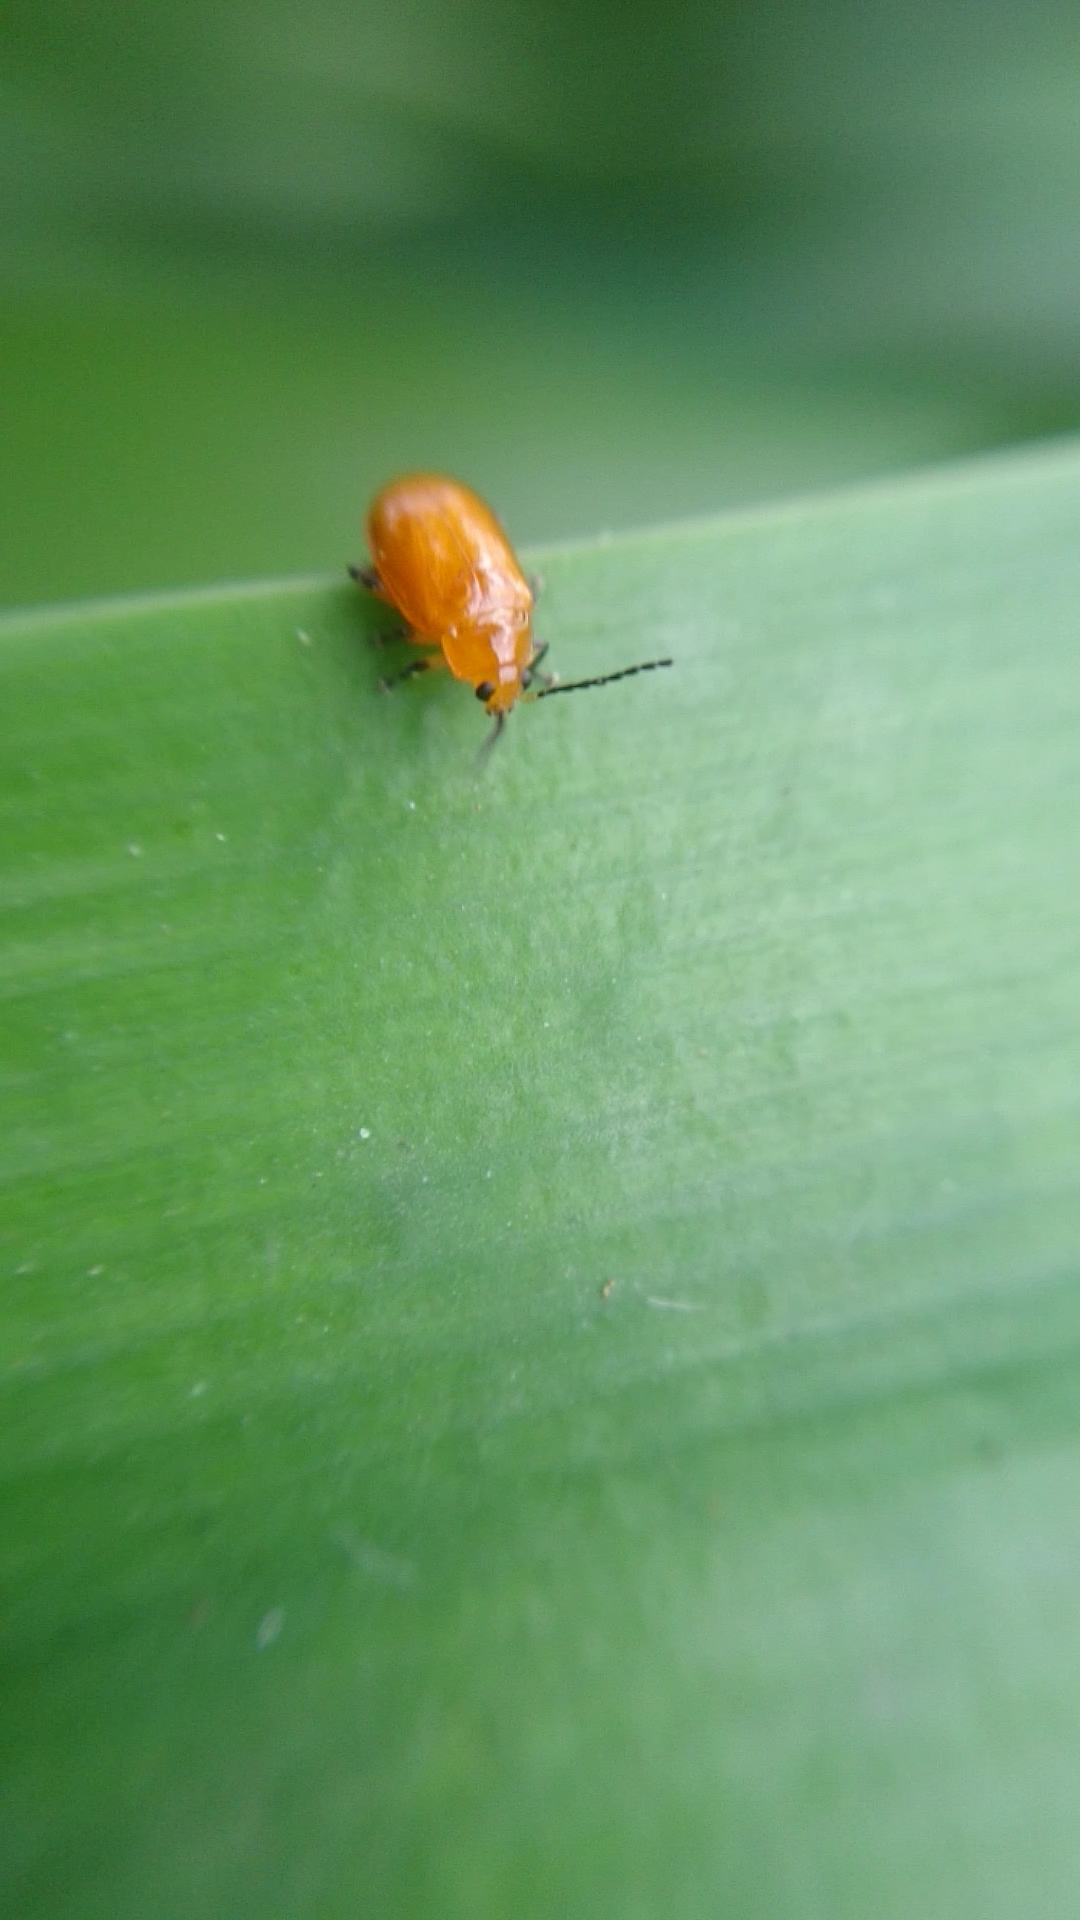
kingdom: Animalia
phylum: Arthropoda
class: Insecta
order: Coleoptera
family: Chrysomelidae
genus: Parchicola
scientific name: Parchicola
